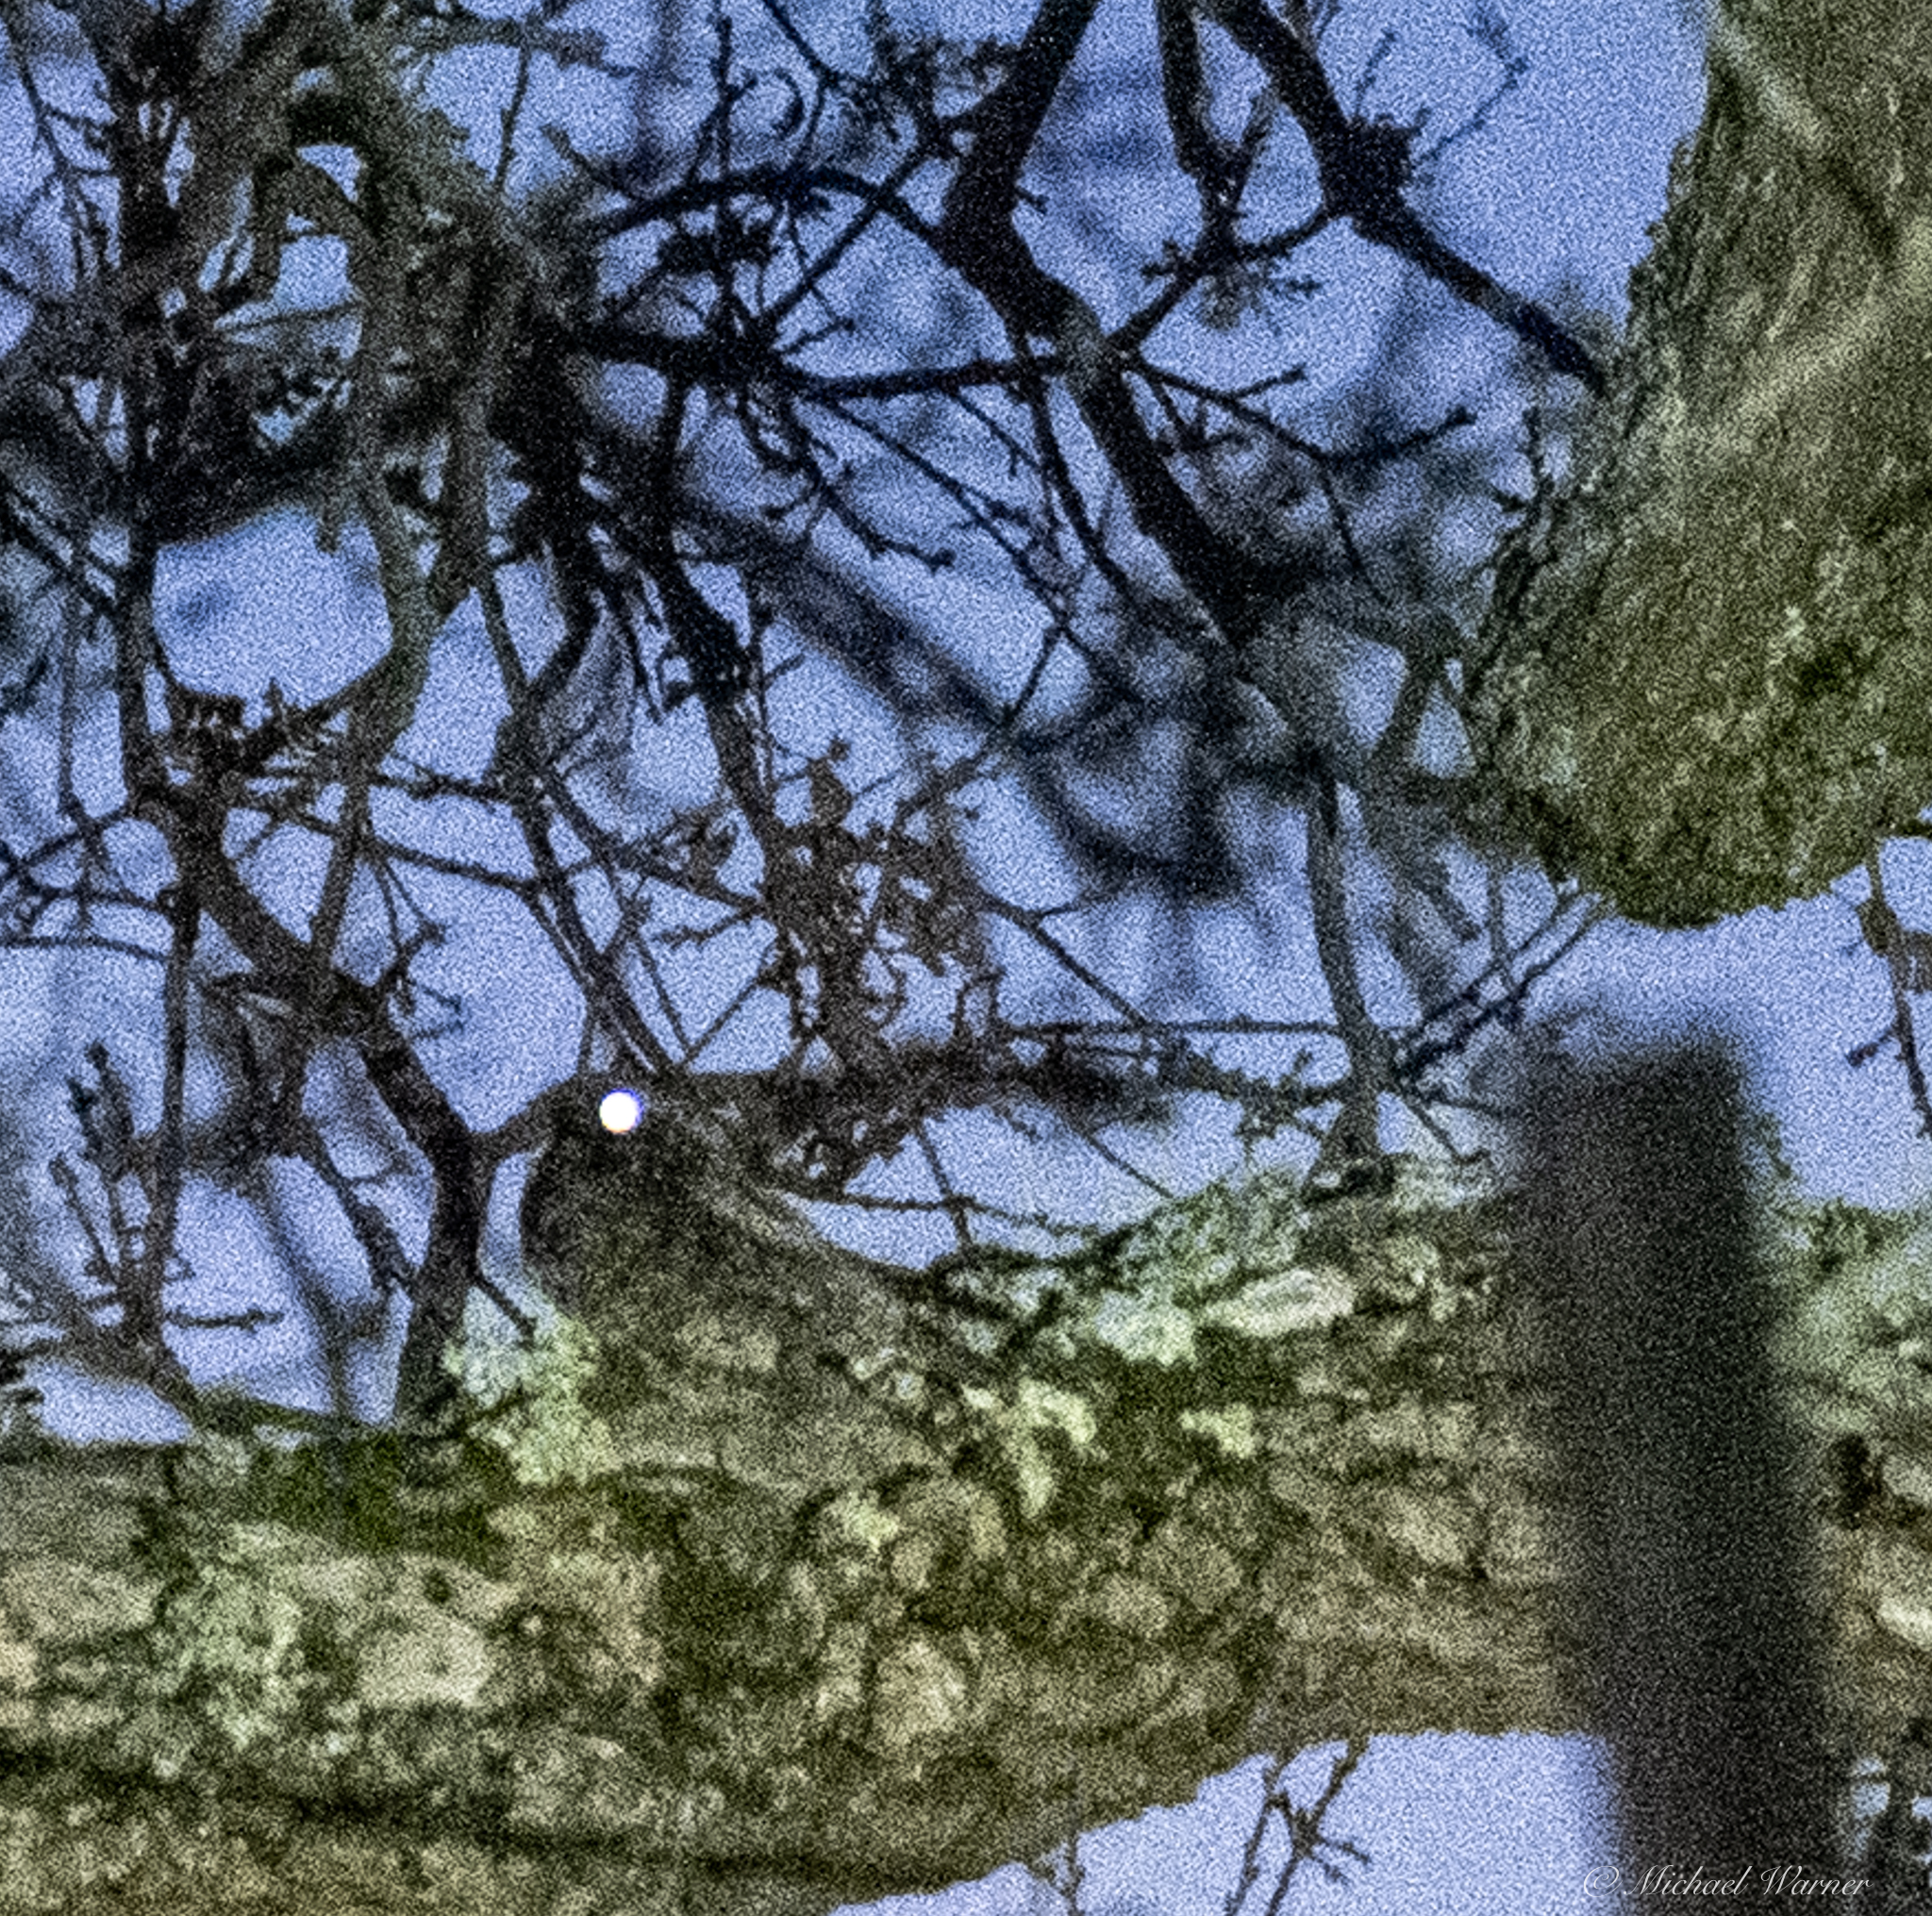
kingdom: Animalia
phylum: Chordata
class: Aves
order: Caprimulgiformes
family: Caprimulgidae
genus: Phalaenoptilus
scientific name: Phalaenoptilus nuttallii
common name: Common poorwill
